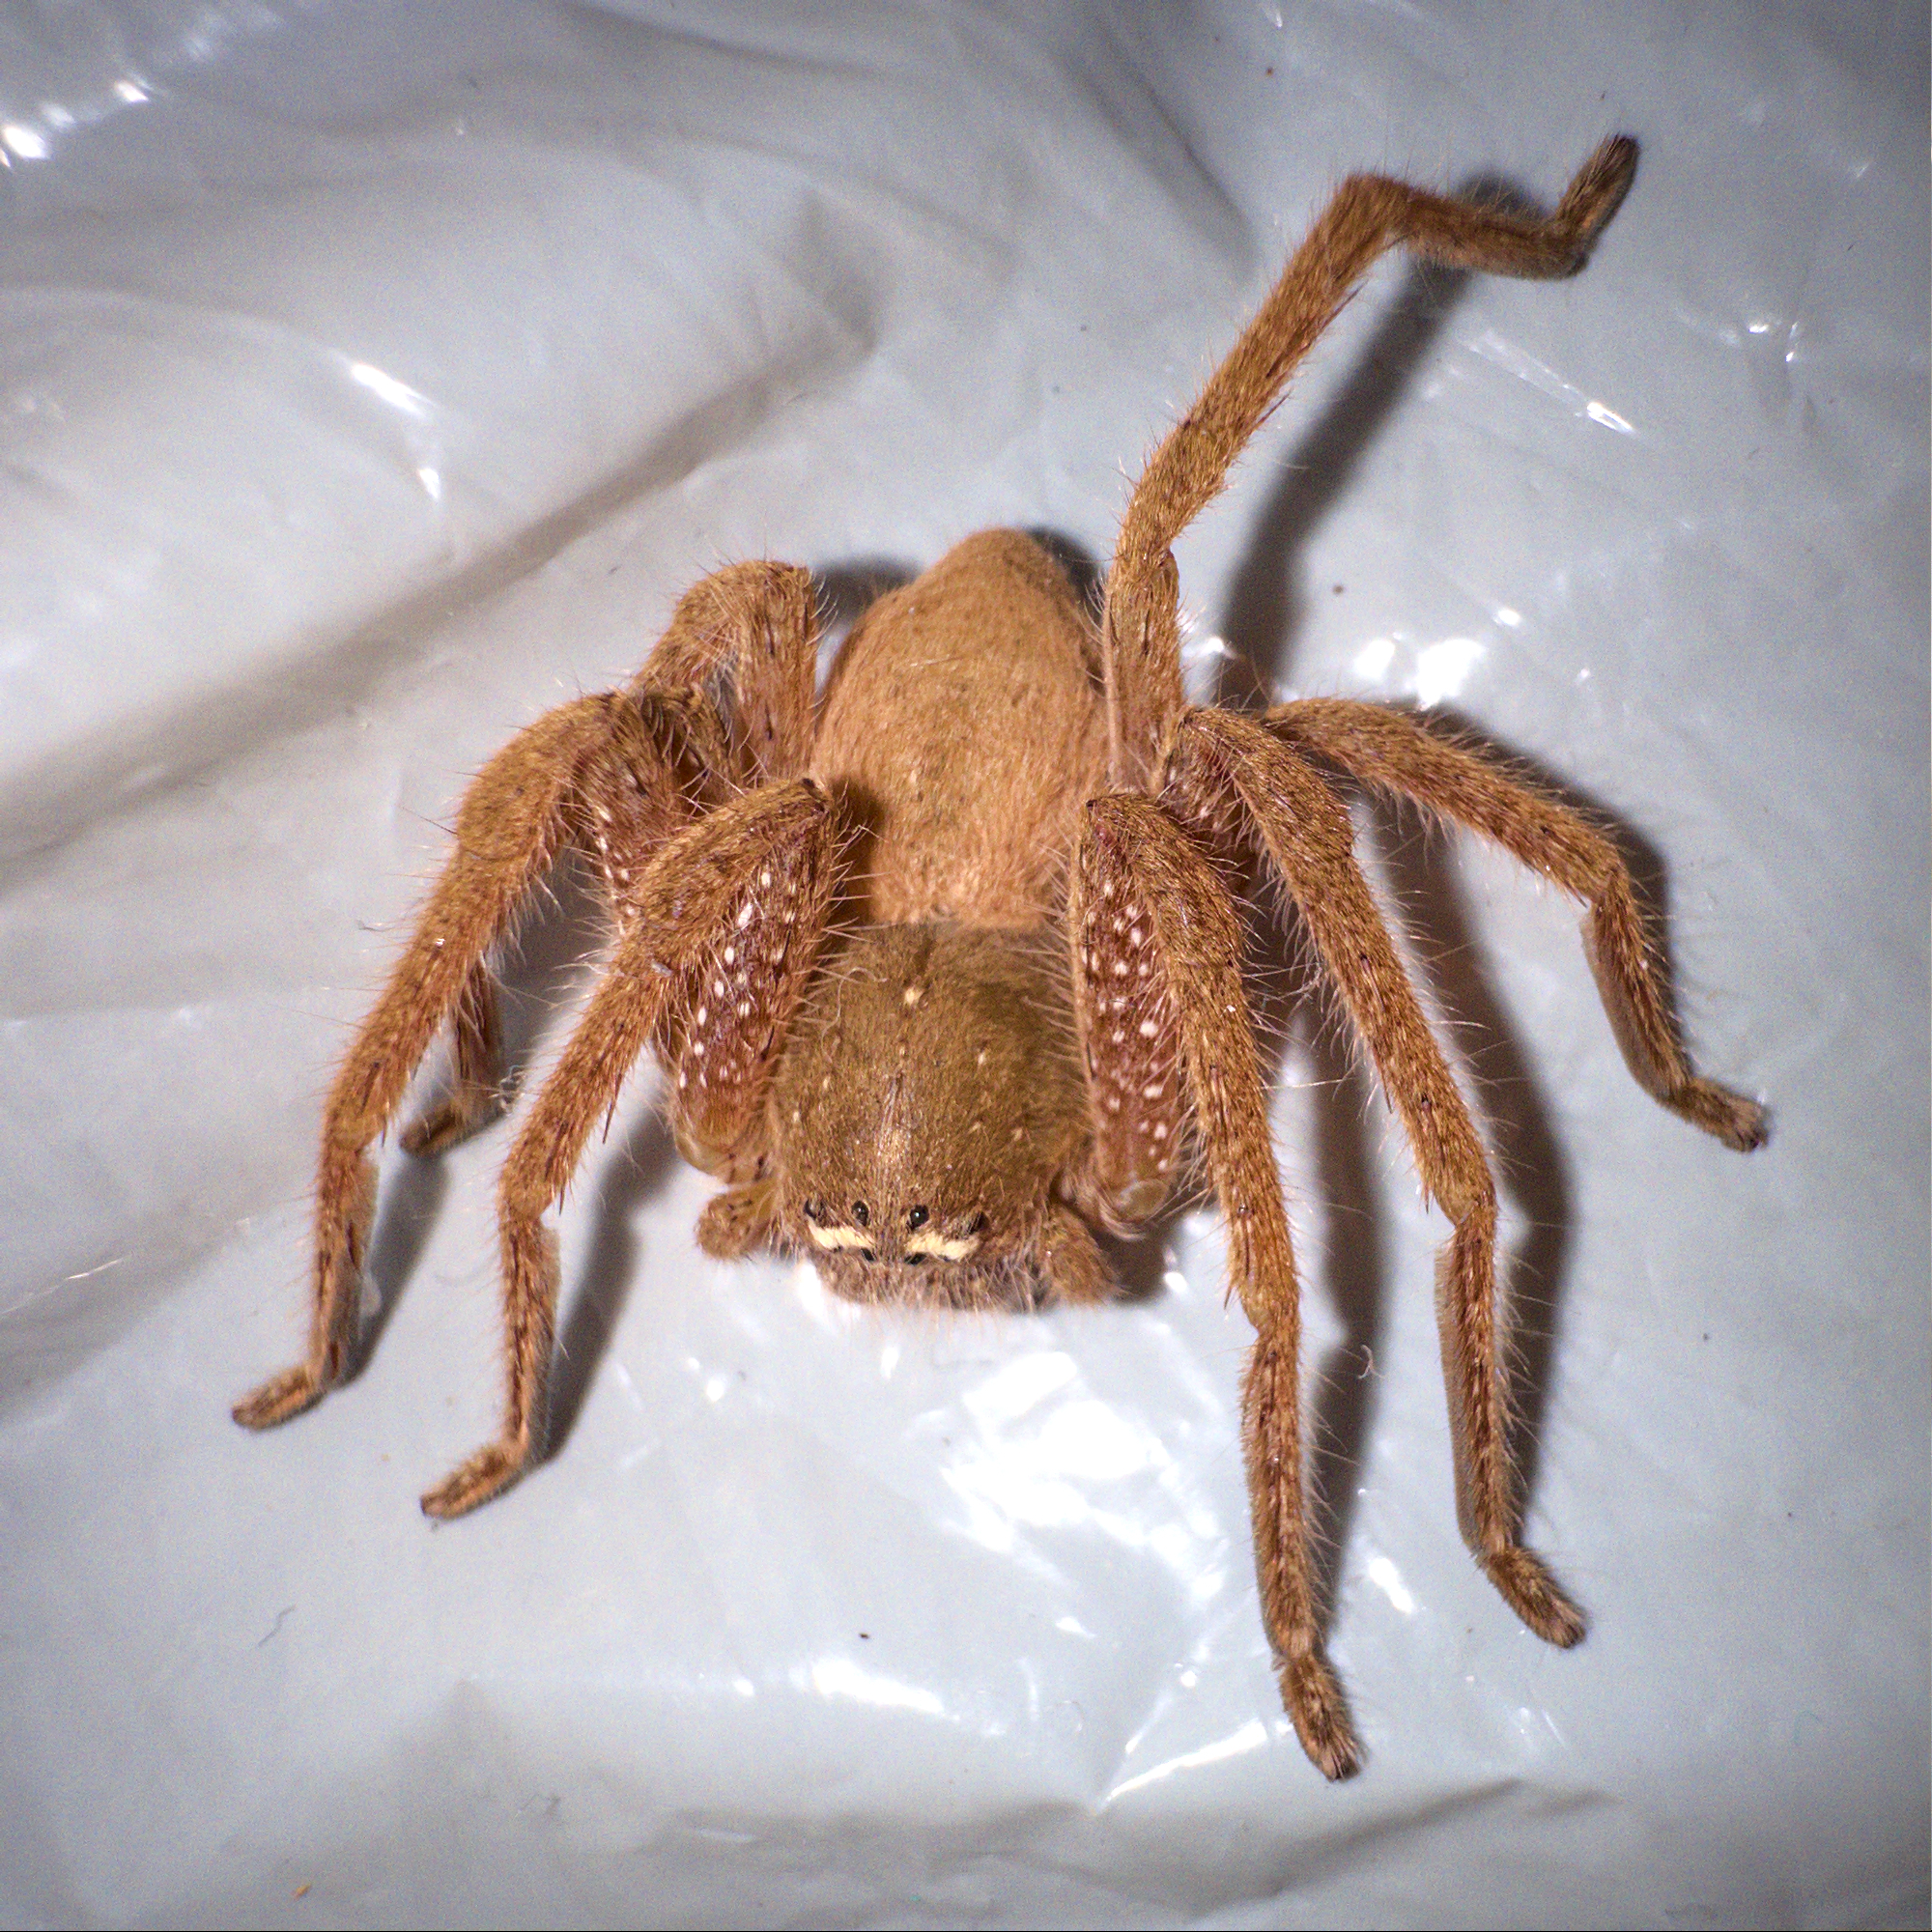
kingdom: Animalia
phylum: Arthropoda
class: Arachnida
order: Araneae
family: Sparassidae
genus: Neosparassus
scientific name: Neosparassus diana
